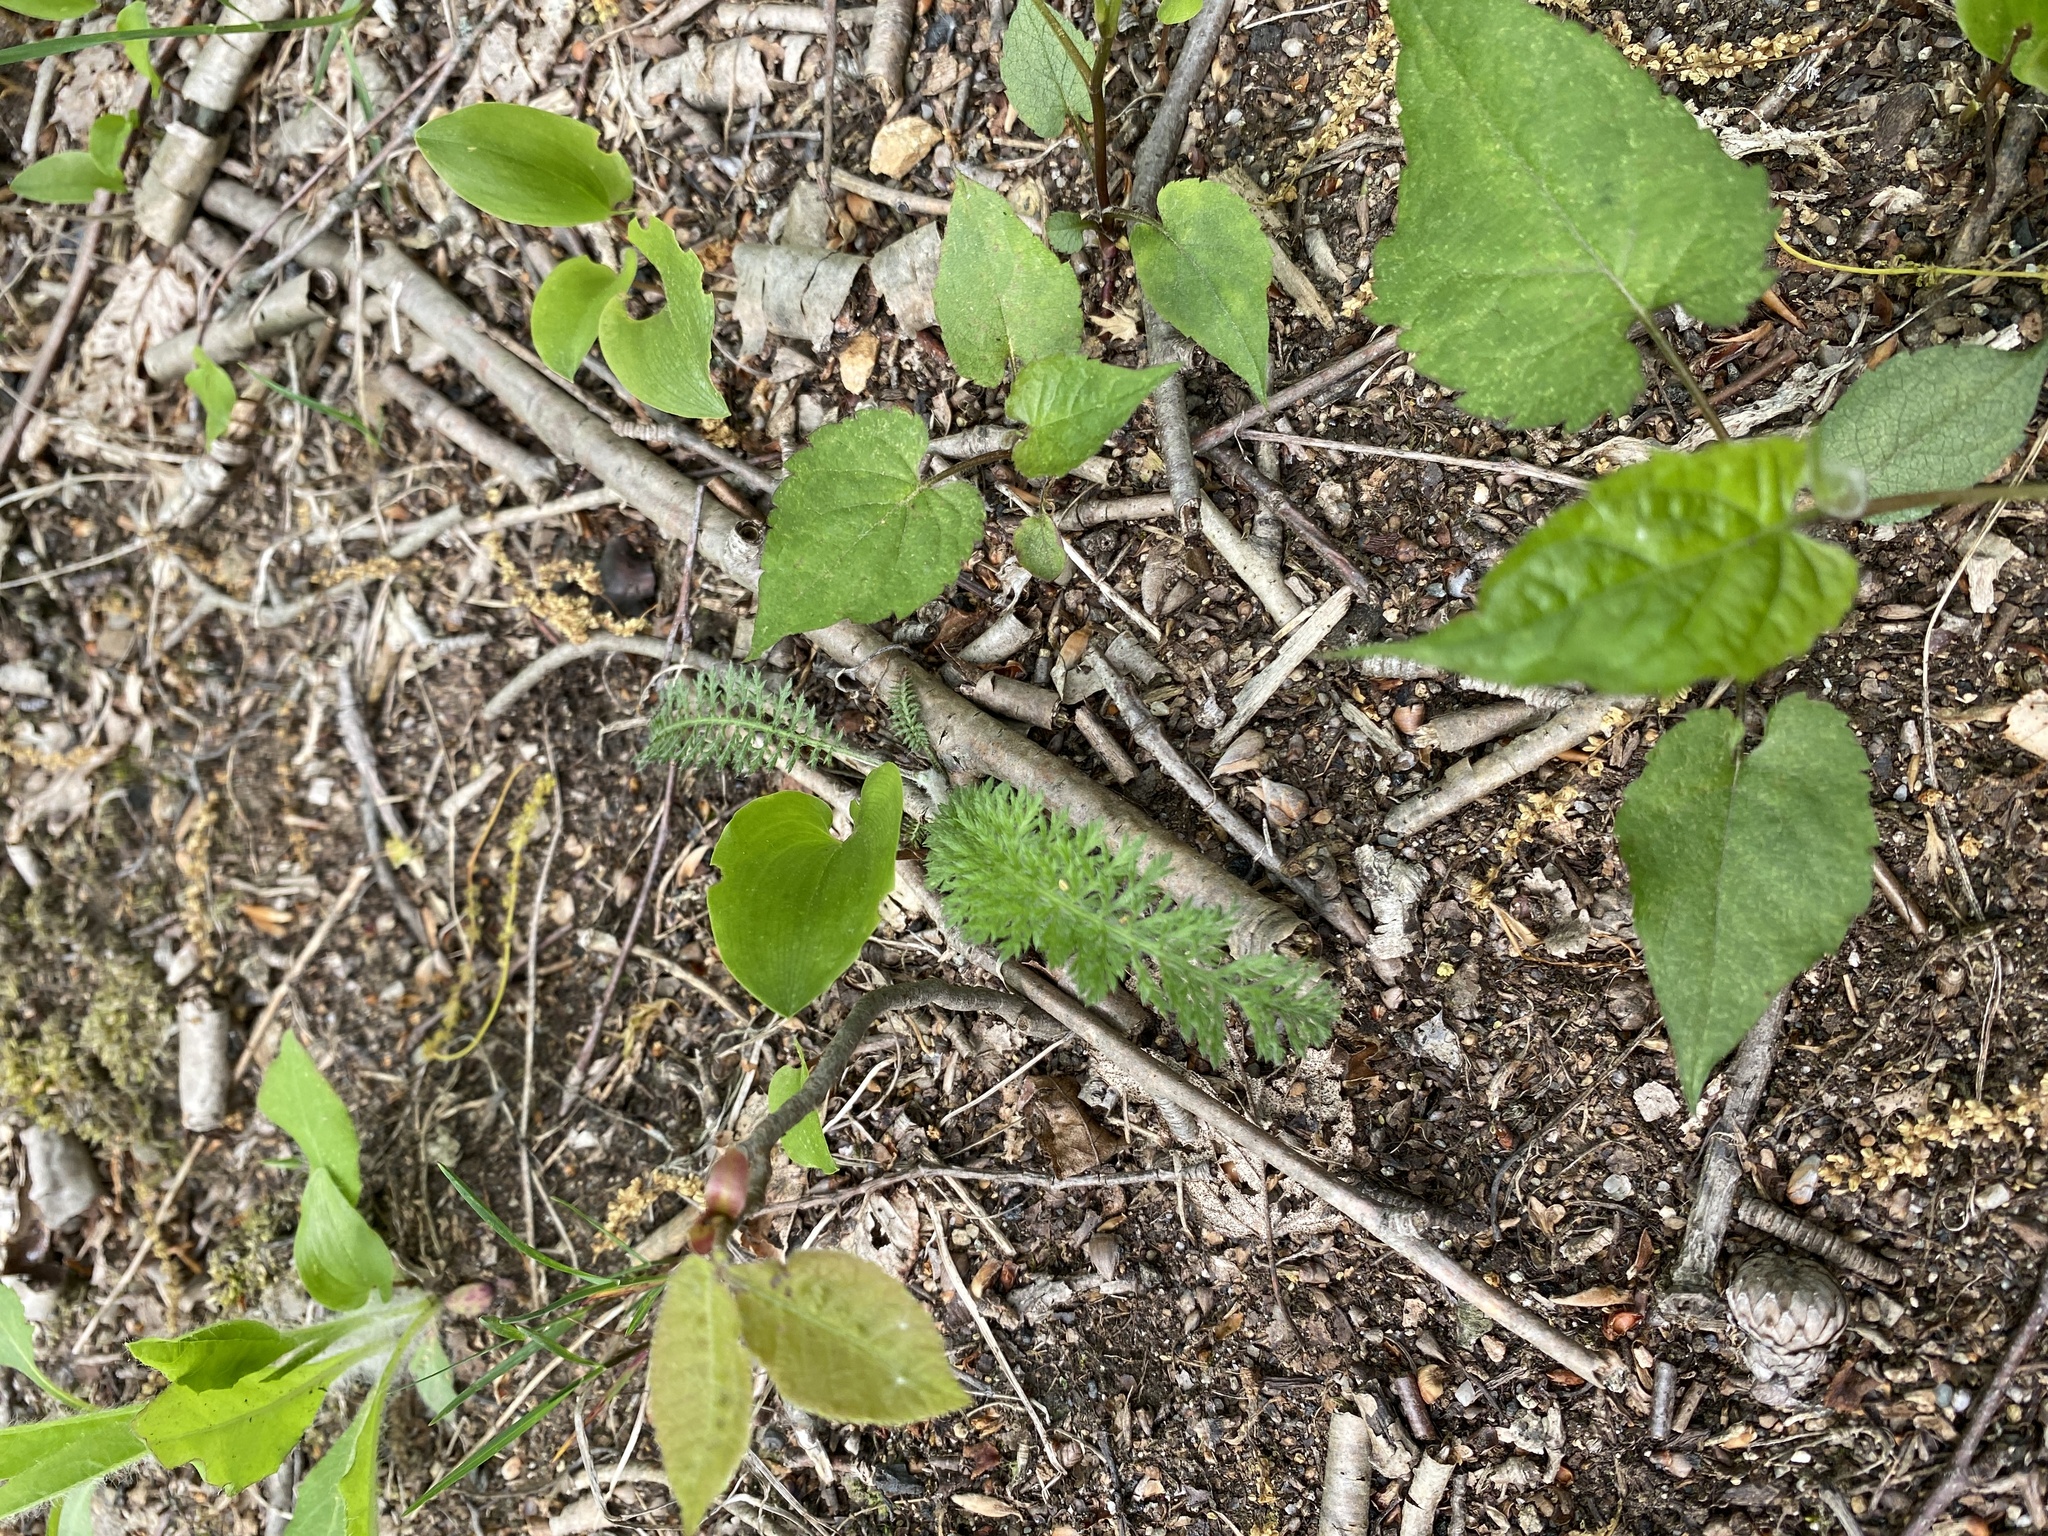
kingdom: Plantae
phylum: Tracheophyta
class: Magnoliopsida
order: Asterales
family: Asteraceae
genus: Achillea
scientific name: Achillea millefolium
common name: Yarrow
